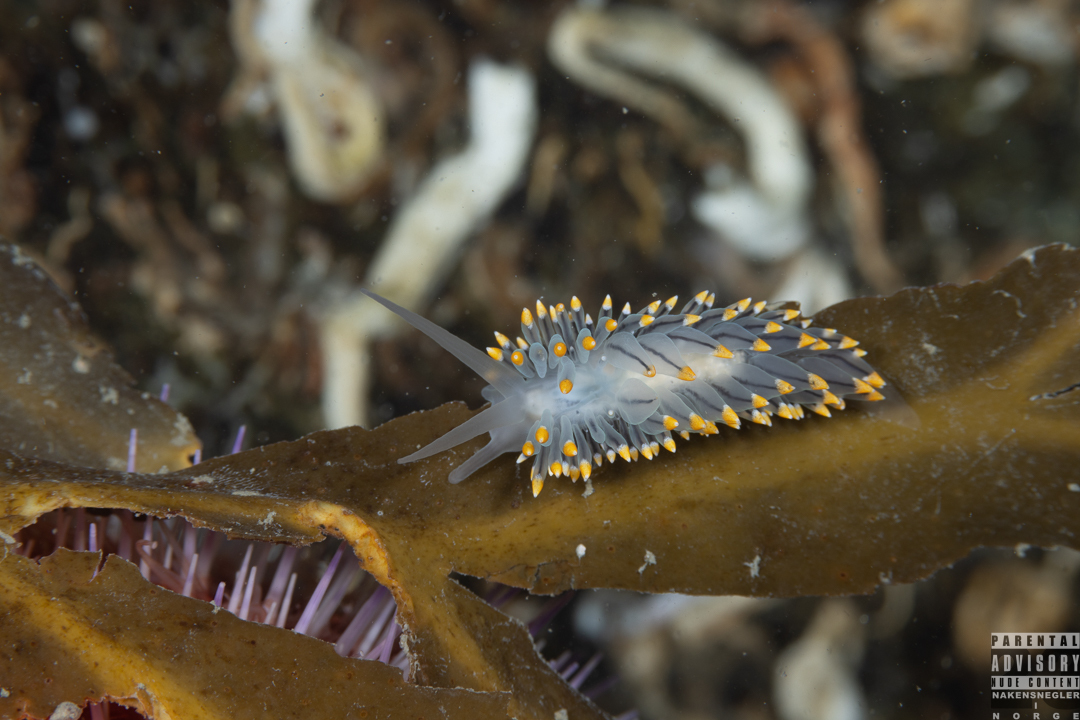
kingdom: Animalia
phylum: Mollusca
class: Gastropoda
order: Nudibranchia
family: Eubranchidae
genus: Eubranchus
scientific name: Eubranchus tricolor
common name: Painted balloon aeolis
